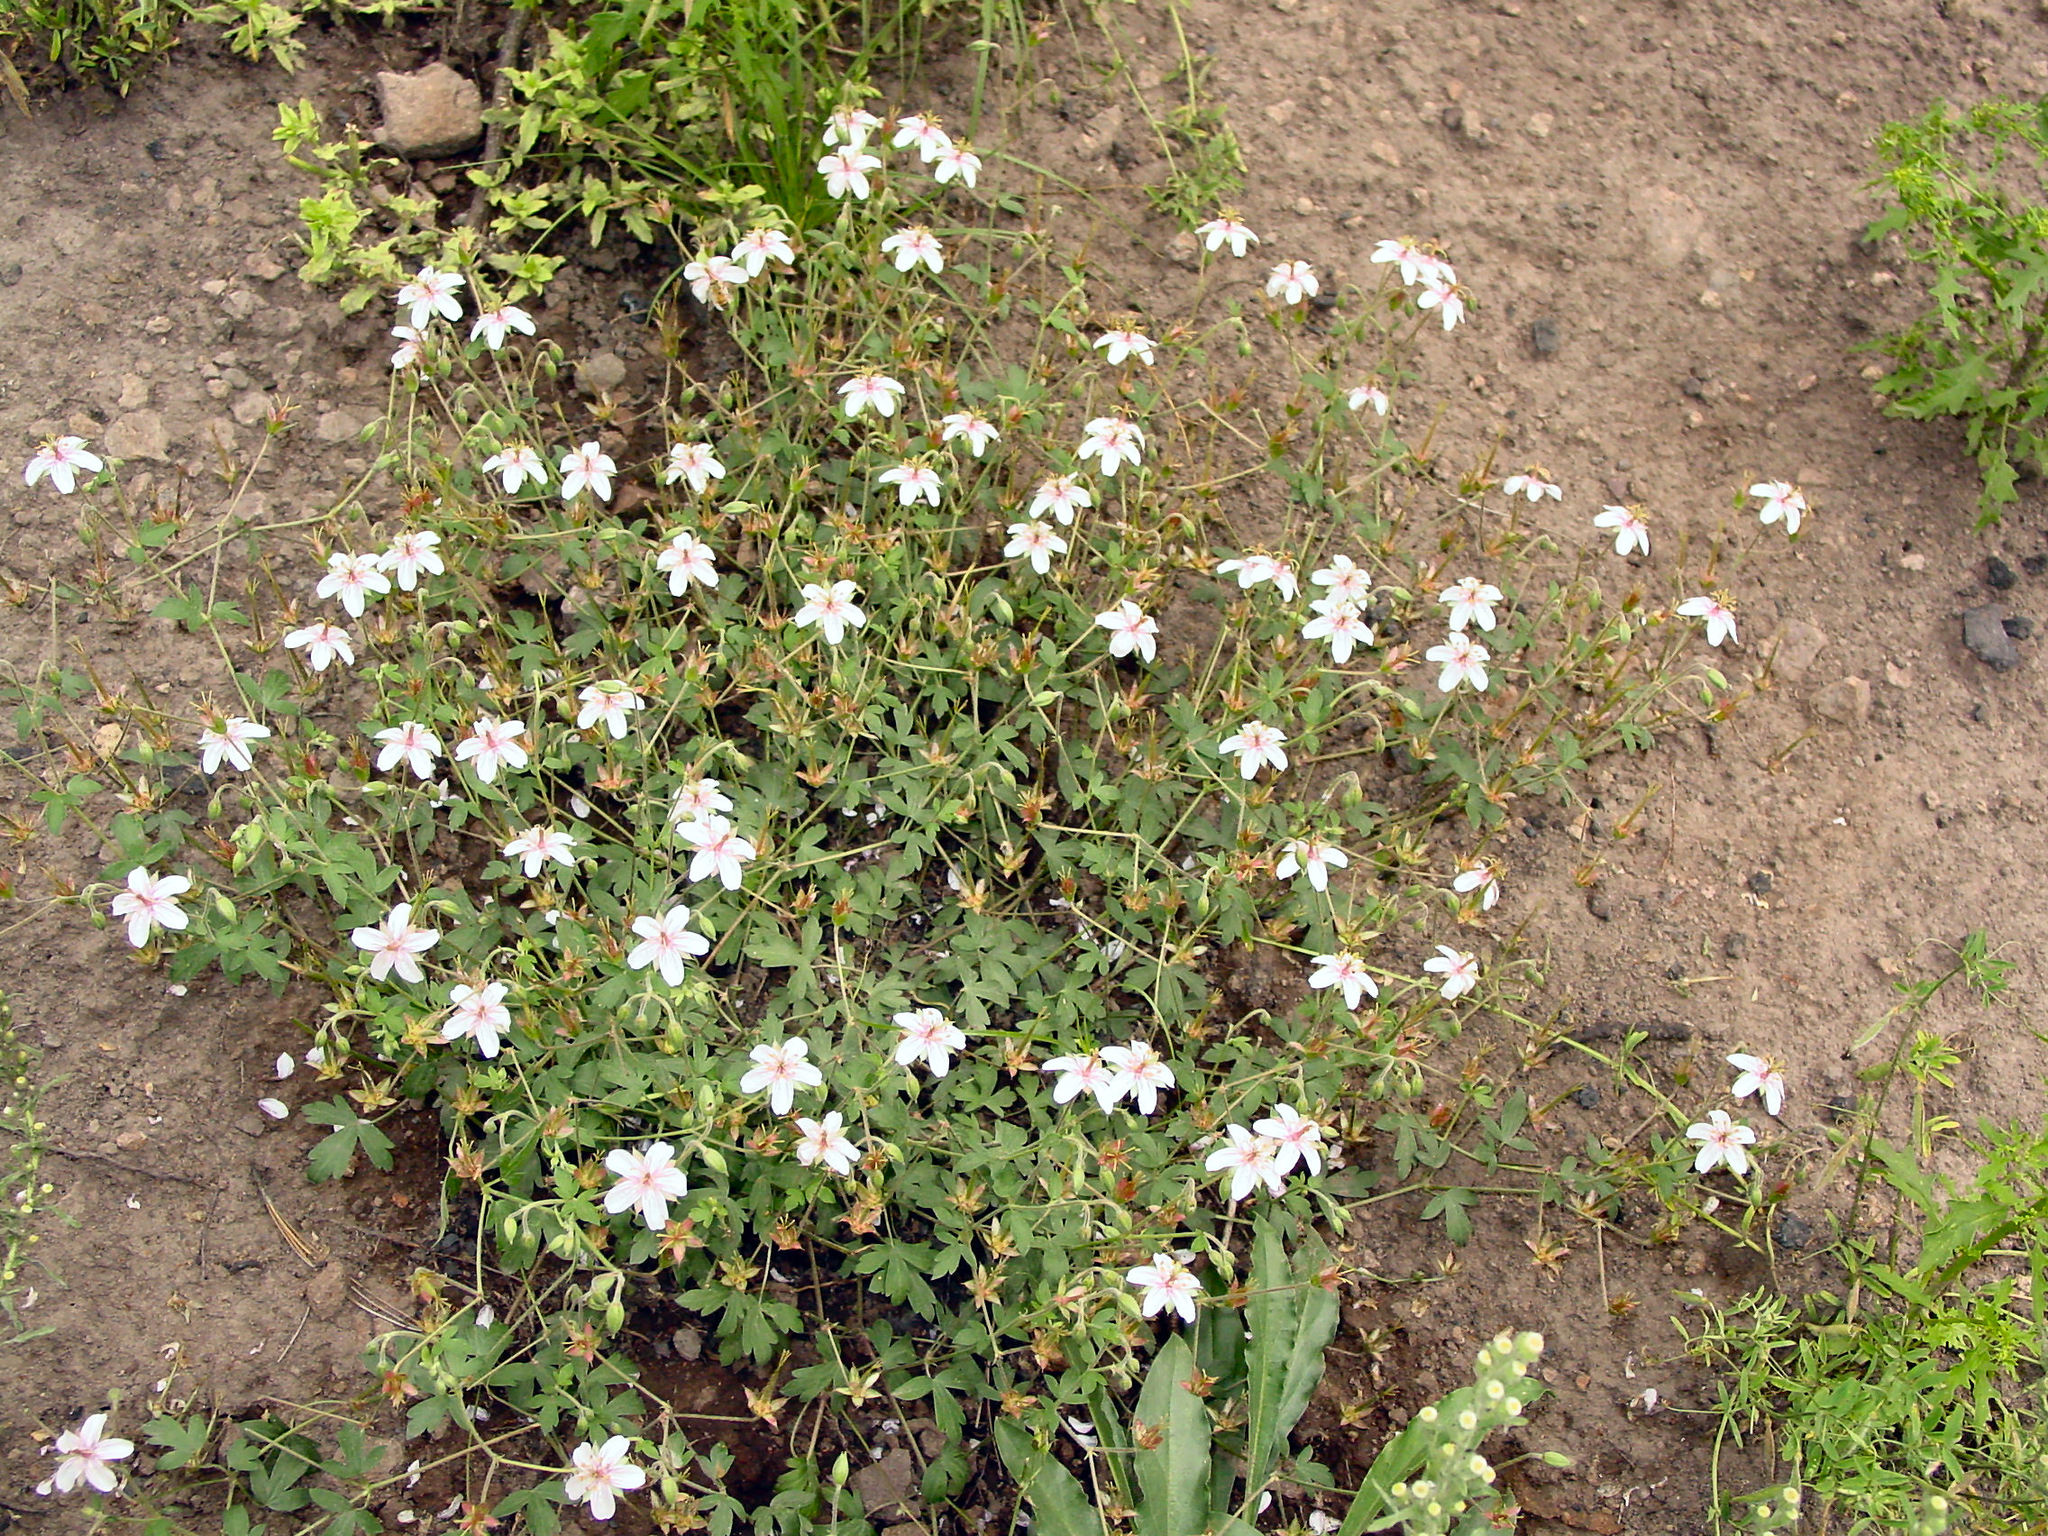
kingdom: Plantae
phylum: Tracheophyta
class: Magnoliopsida
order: Geraniales
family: Geraniaceae
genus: Geranium
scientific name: Geranium caespitosum
